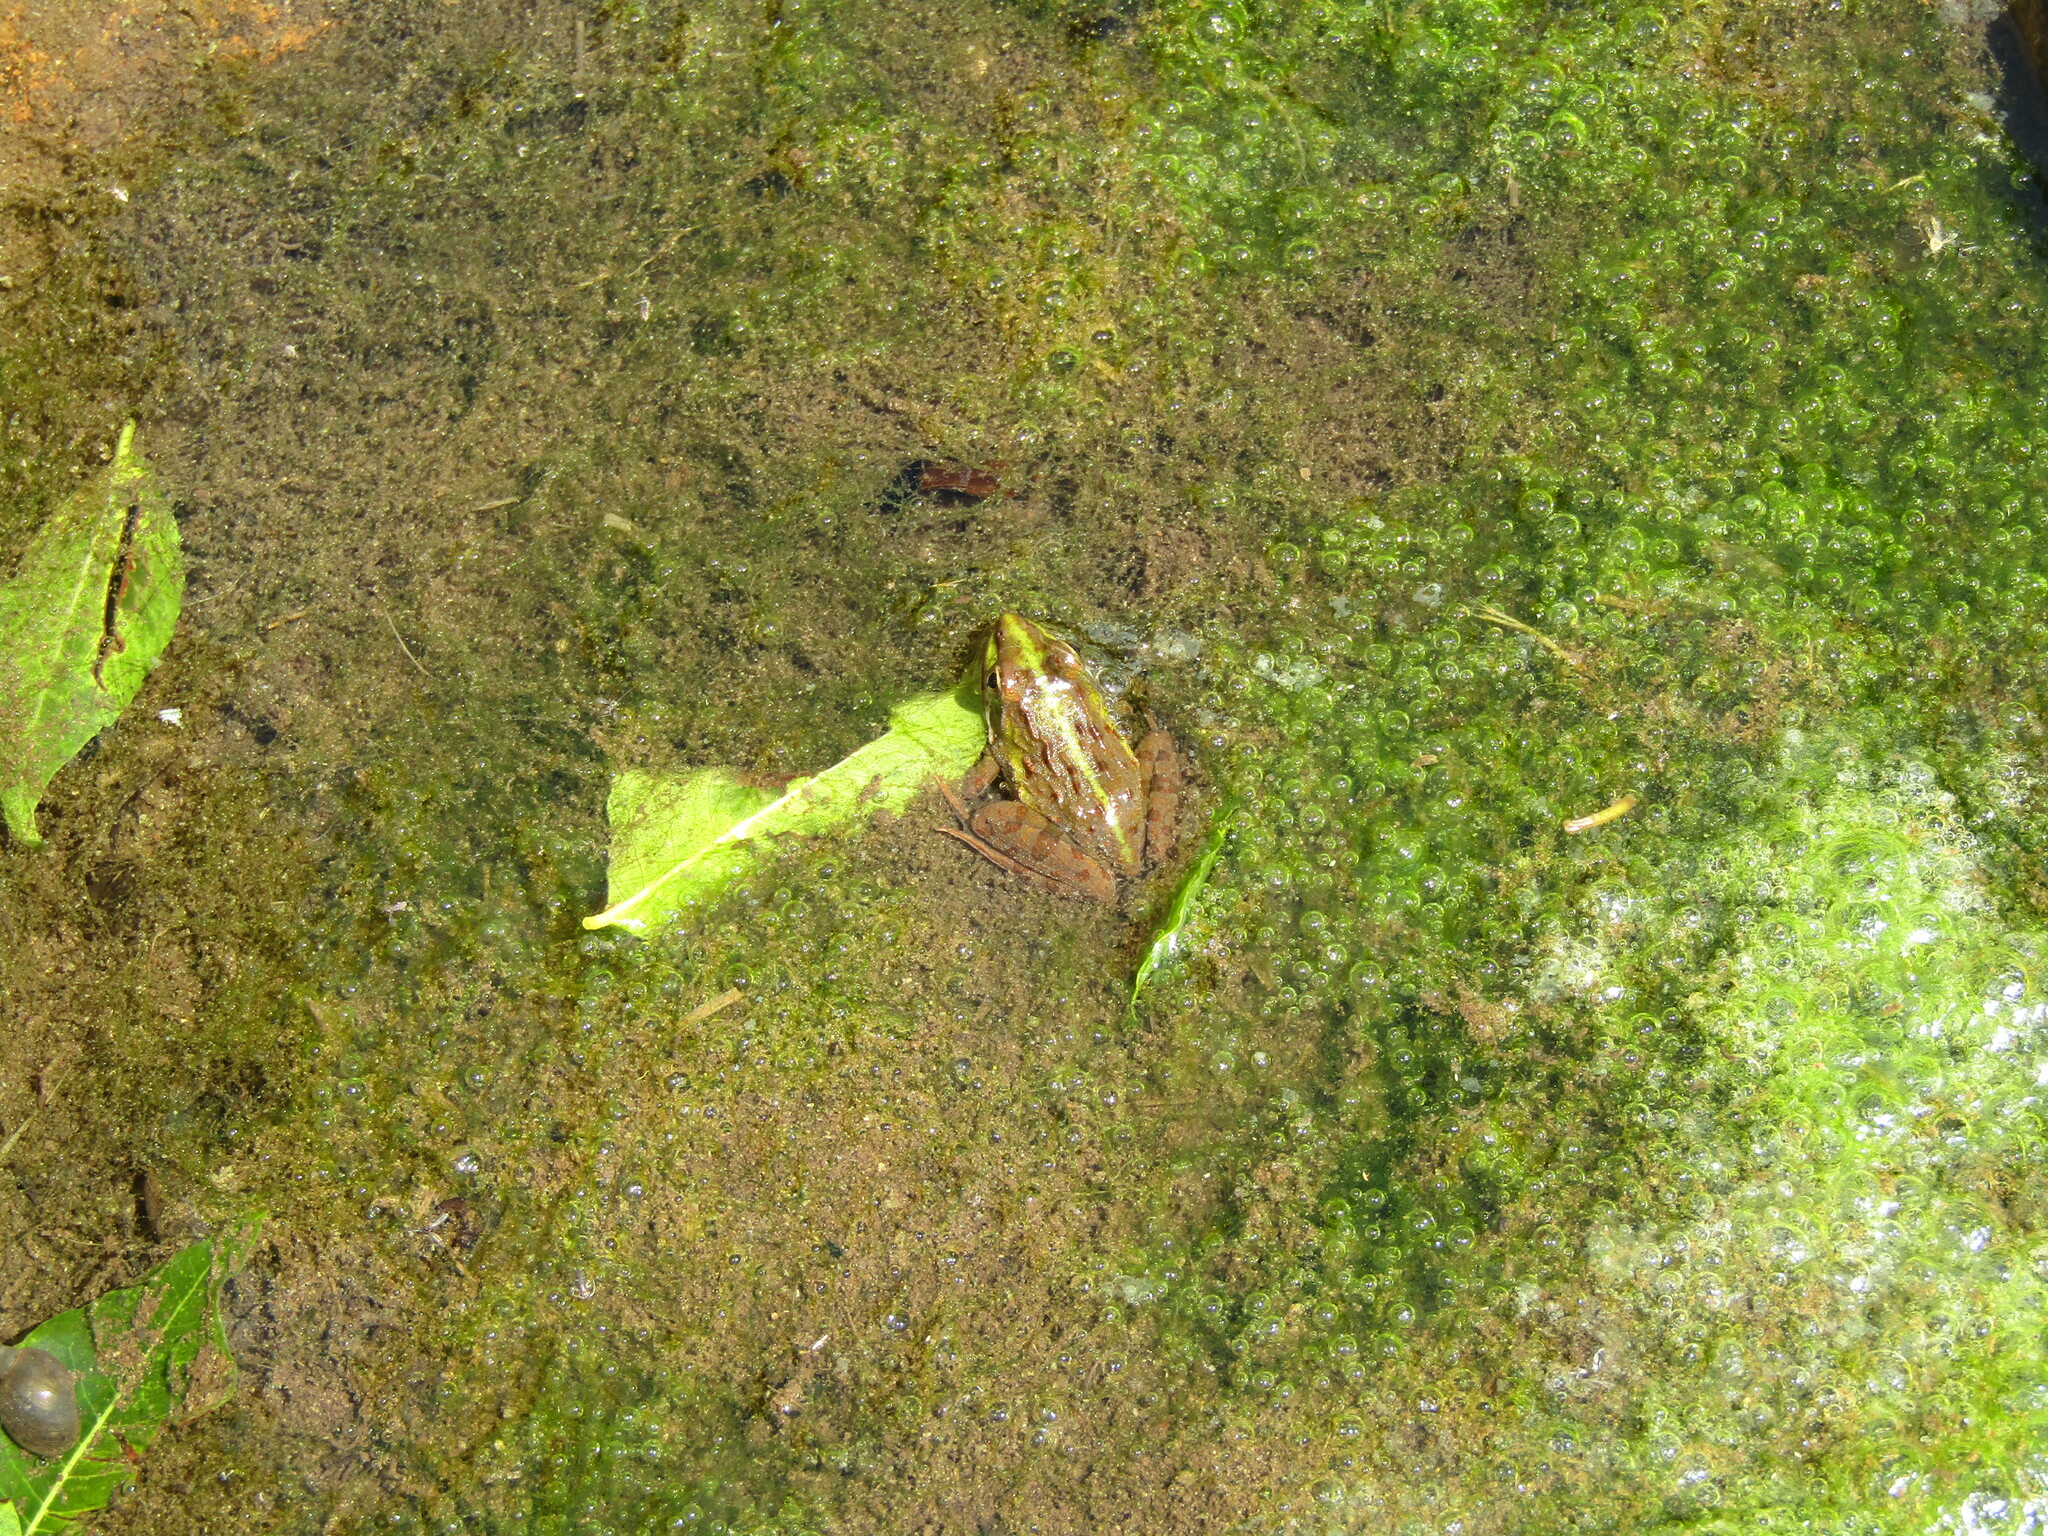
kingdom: Animalia
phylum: Chordata
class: Amphibia
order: Anura
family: Pyxicephalidae
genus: Amietia
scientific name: Amietia delalandii
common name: Delalande's river frog
